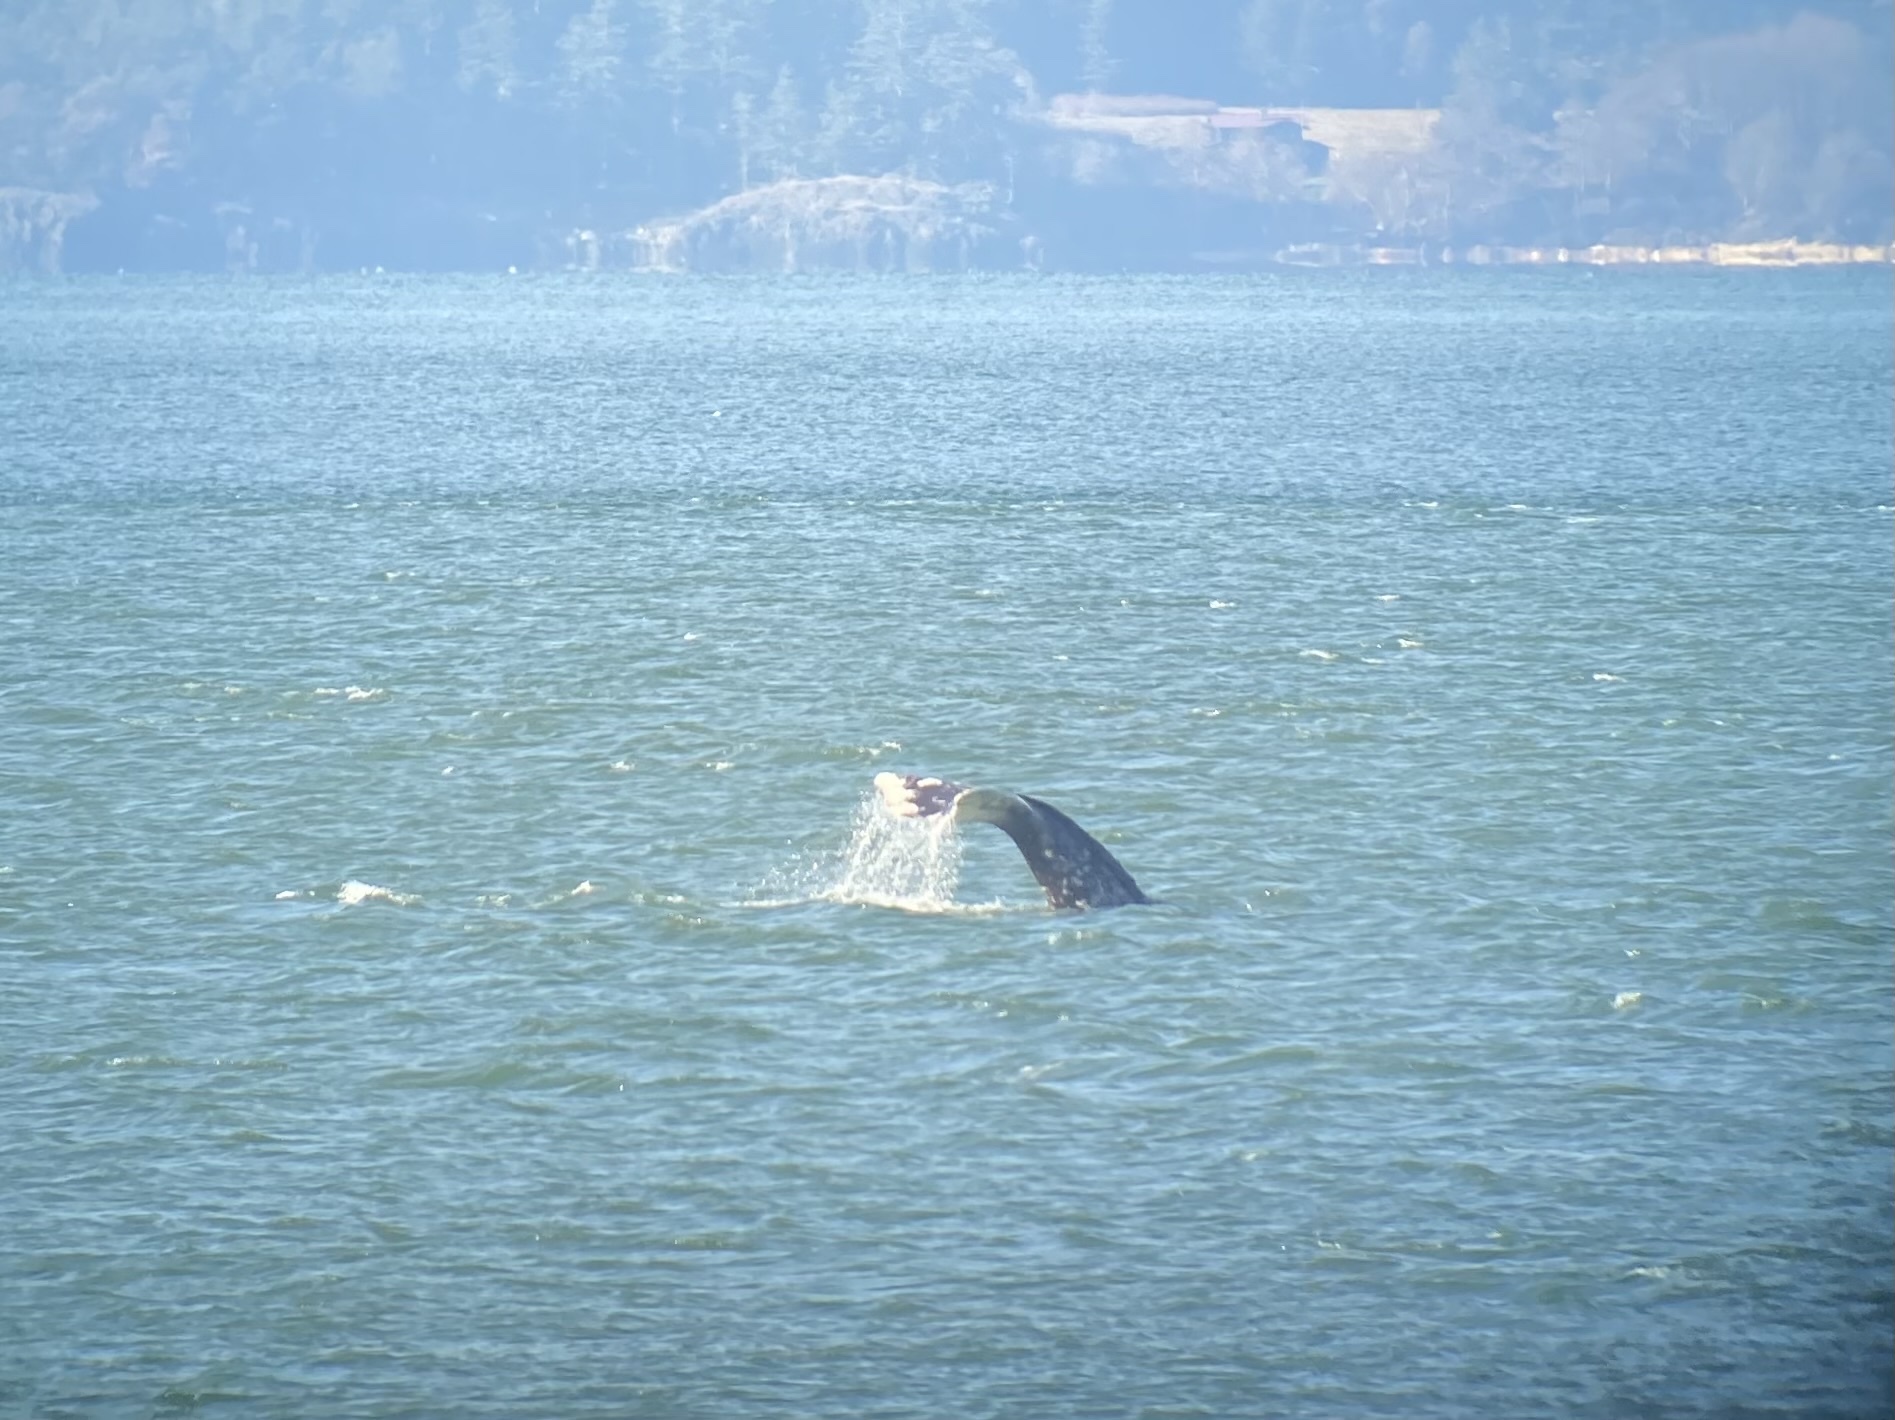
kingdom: Animalia
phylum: Chordata
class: Mammalia
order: Cetacea
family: Eschrichtiidae
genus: Eschrichtius
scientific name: Eschrichtius robustus
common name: Gray whale
